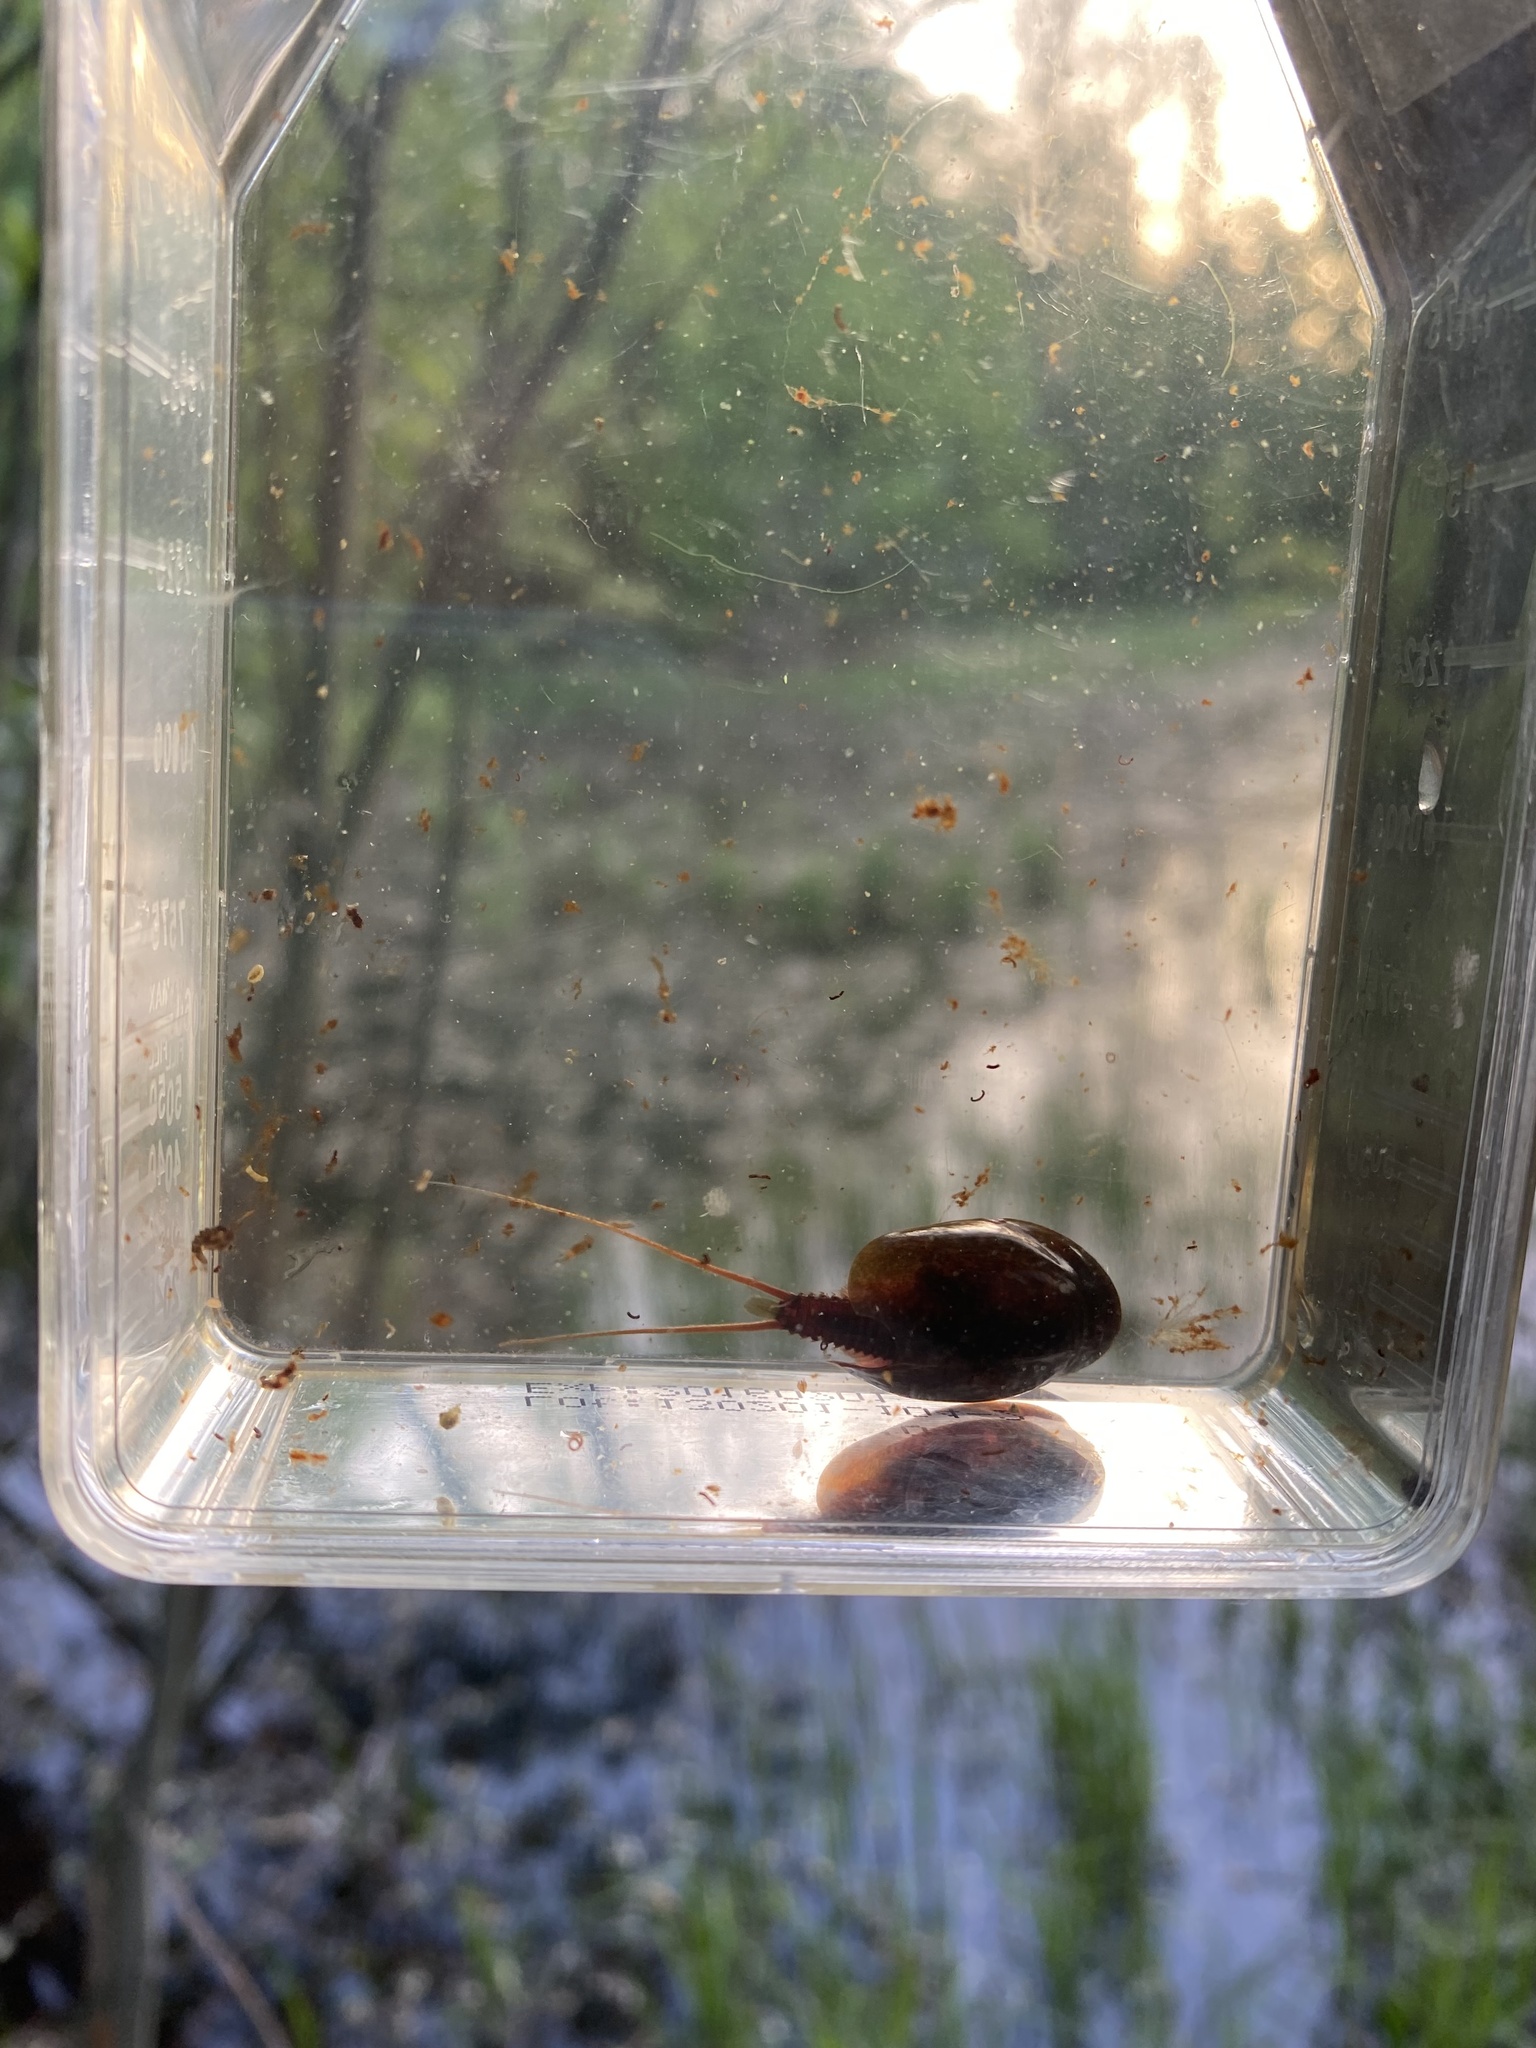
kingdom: Animalia
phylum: Arthropoda
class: Branchiopoda
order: Notostraca
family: Triopsidae
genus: Lepidurus
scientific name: Lepidurus apus
